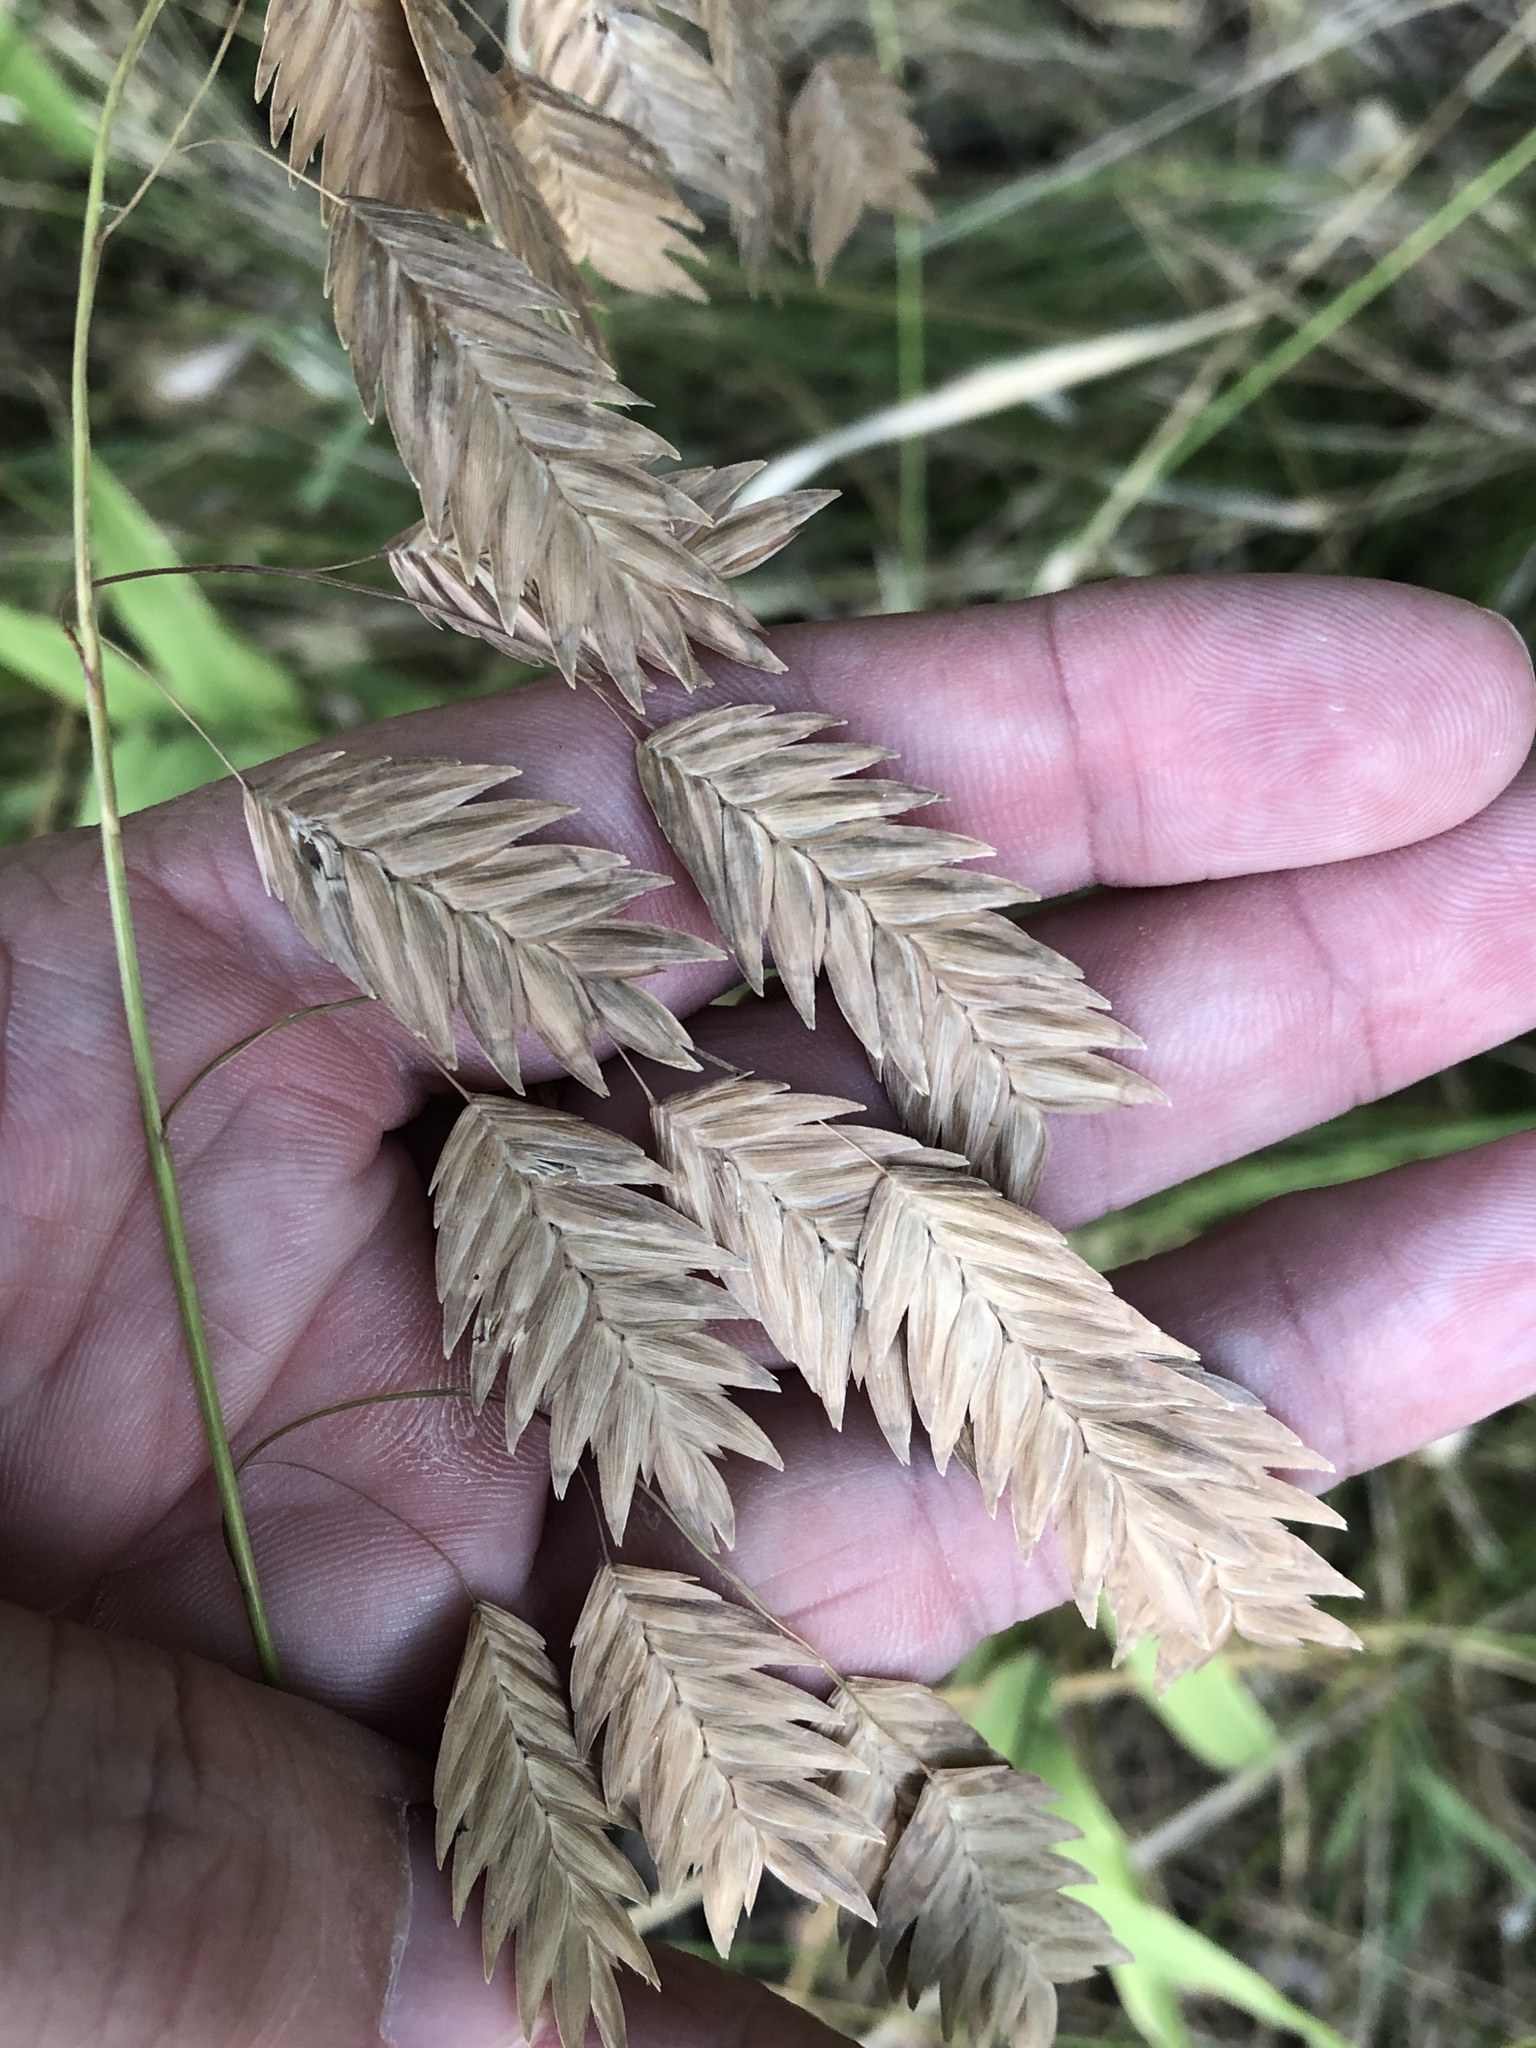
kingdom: Plantae
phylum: Tracheophyta
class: Liliopsida
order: Poales
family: Poaceae
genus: Chasmanthium
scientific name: Chasmanthium latifolium
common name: Broad-leaved chasmanthium
